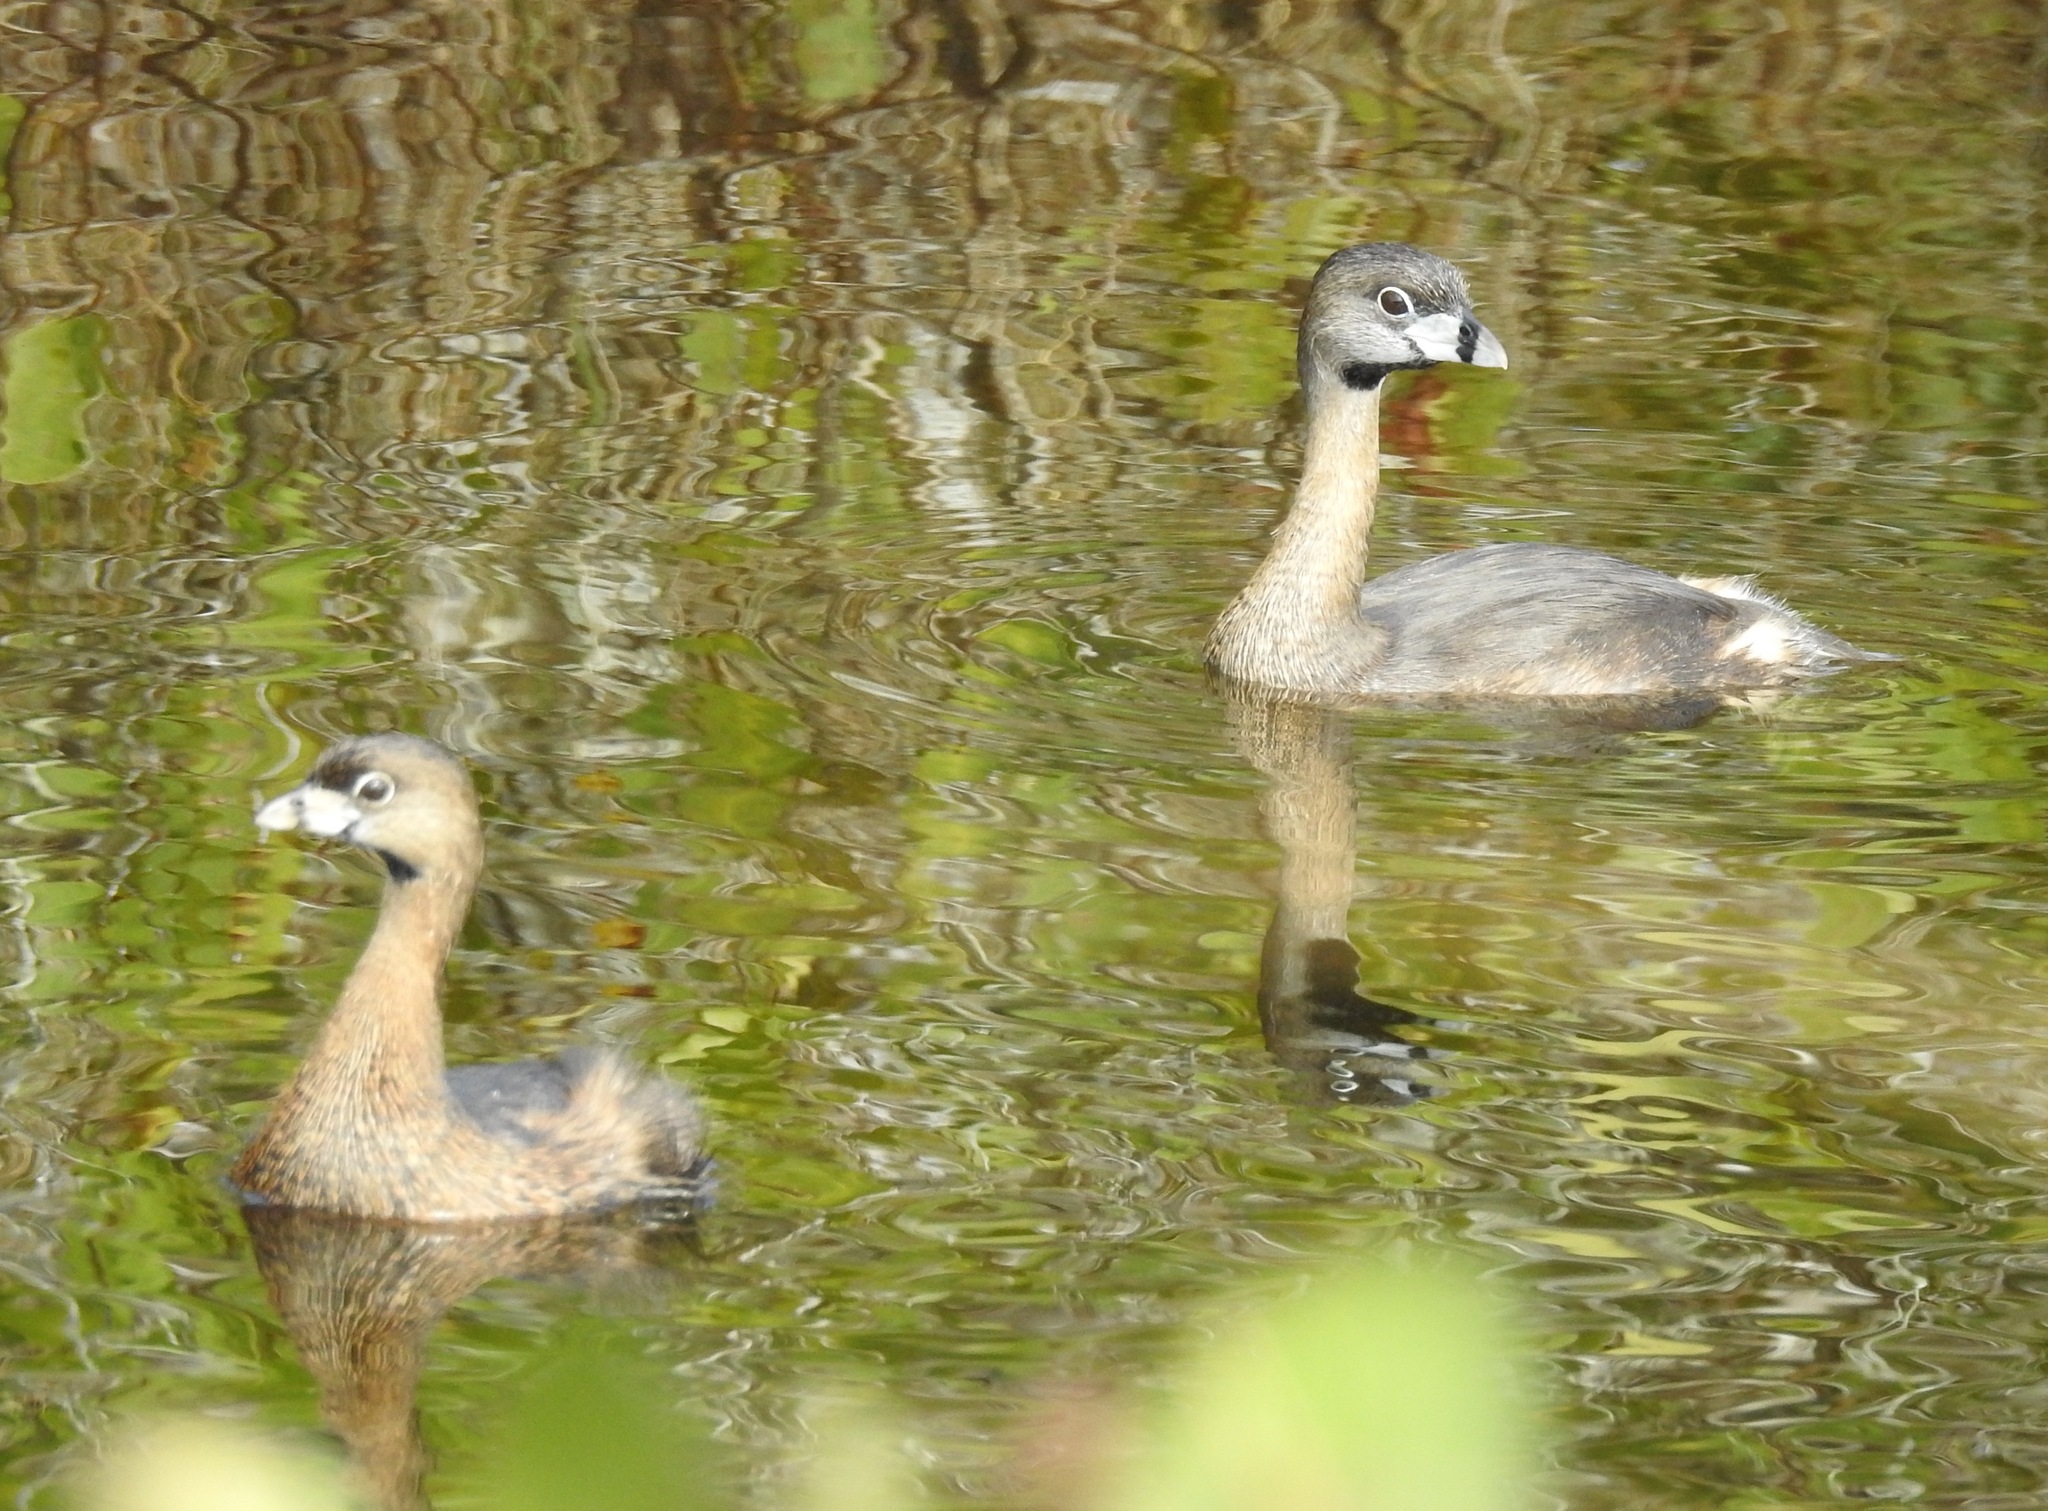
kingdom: Animalia
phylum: Chordata
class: Aves
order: Podicipediformes
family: Podicipedidae
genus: Podilymbus
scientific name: Podilymbus podiceps
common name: Pied-billed grebe
